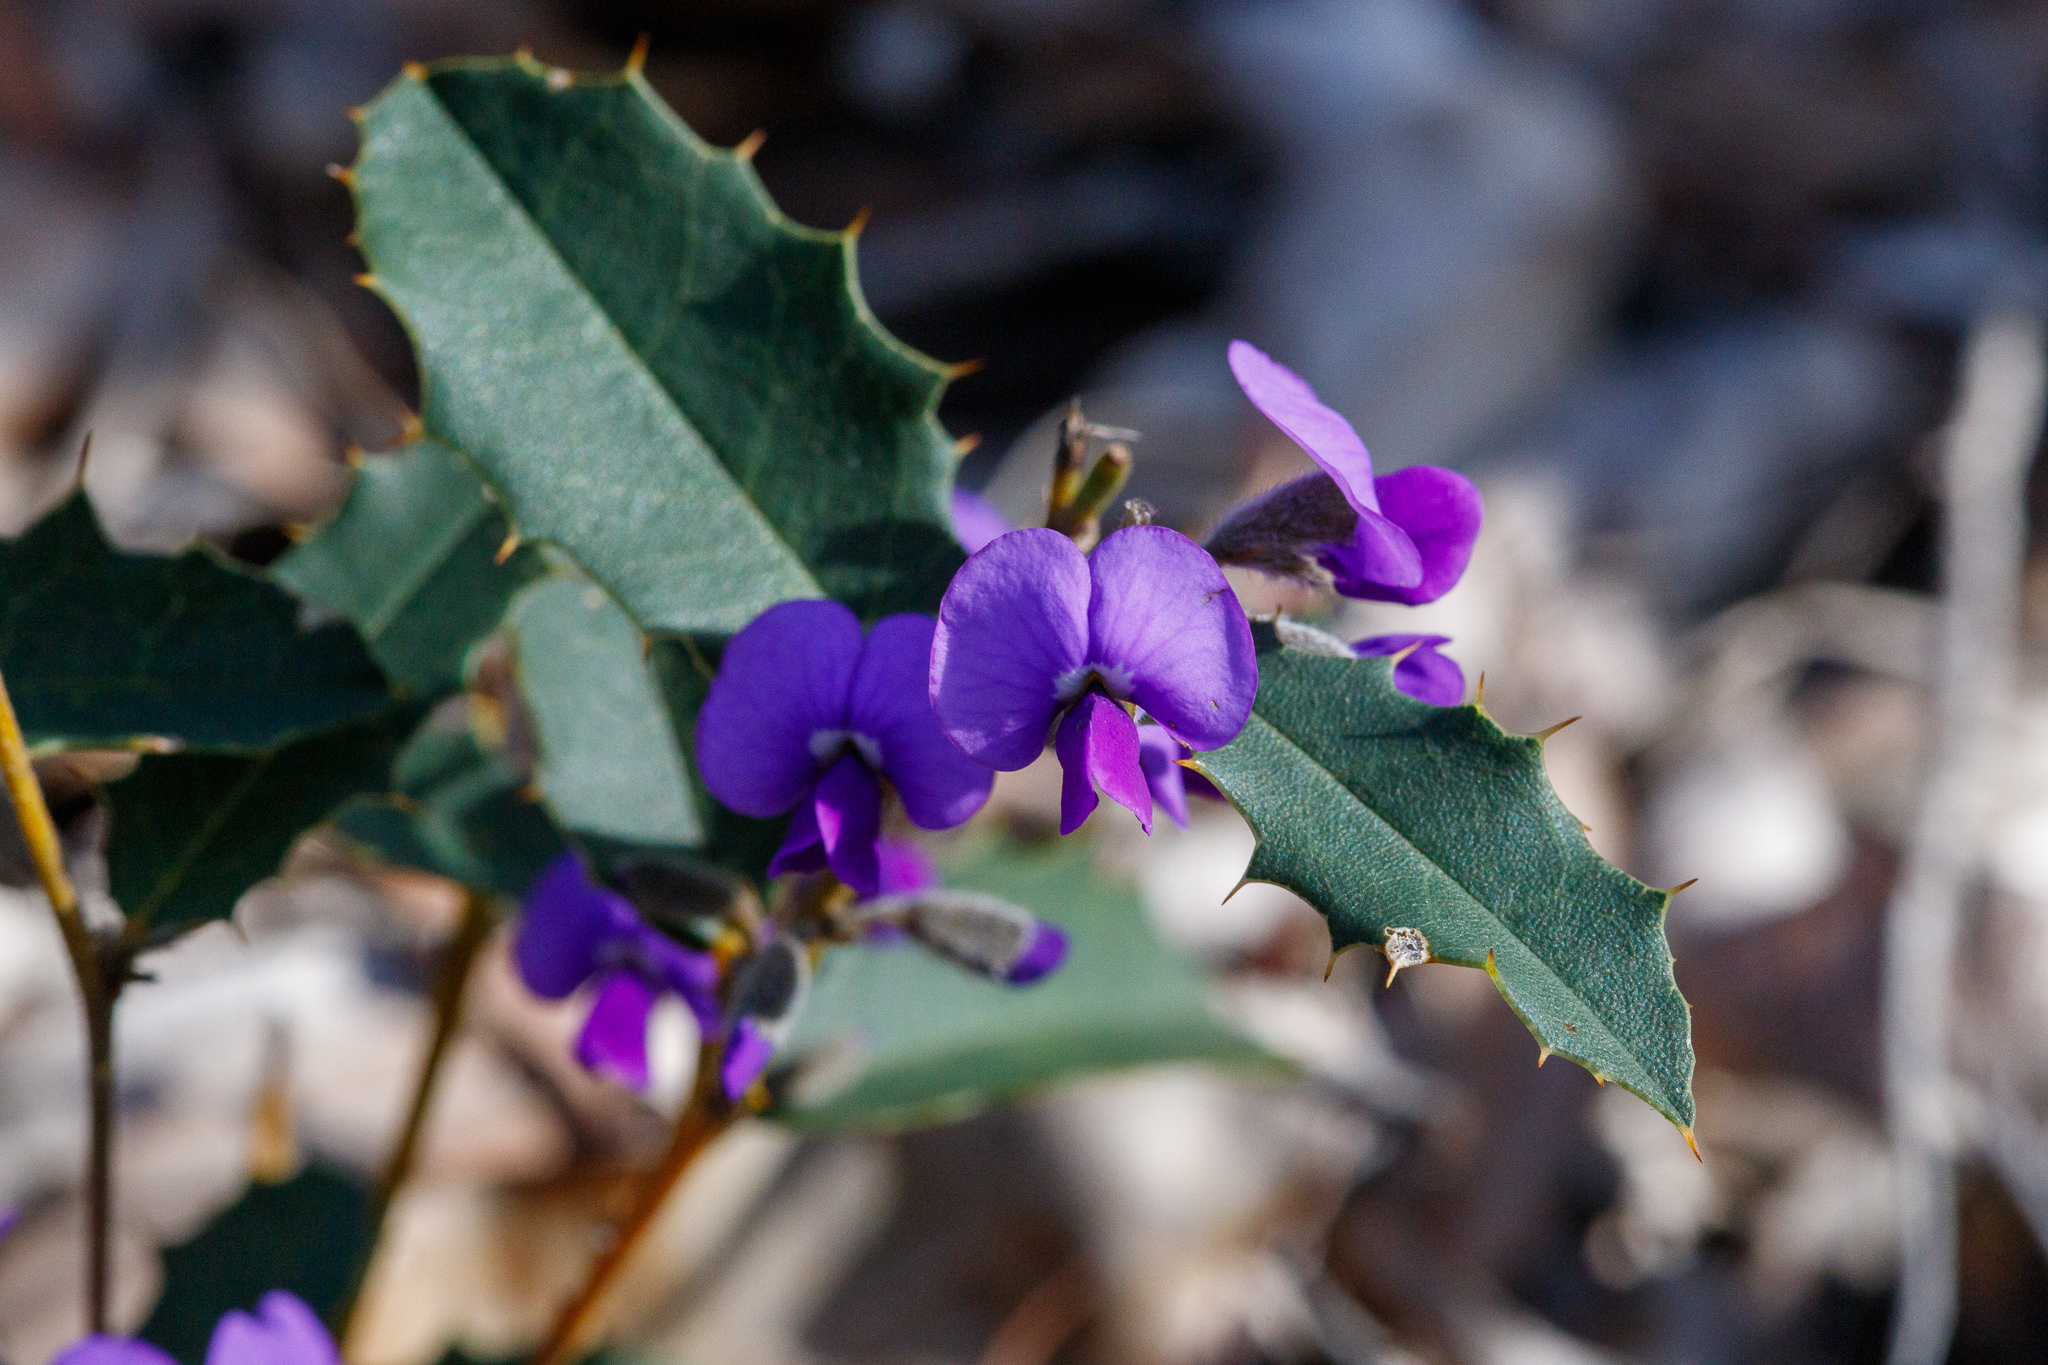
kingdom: Plantae
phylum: Tracheophyta
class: Magnoliopsida
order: Fabales
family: Fabaceae
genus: Hovea
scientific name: Hovea chorizemifolia
